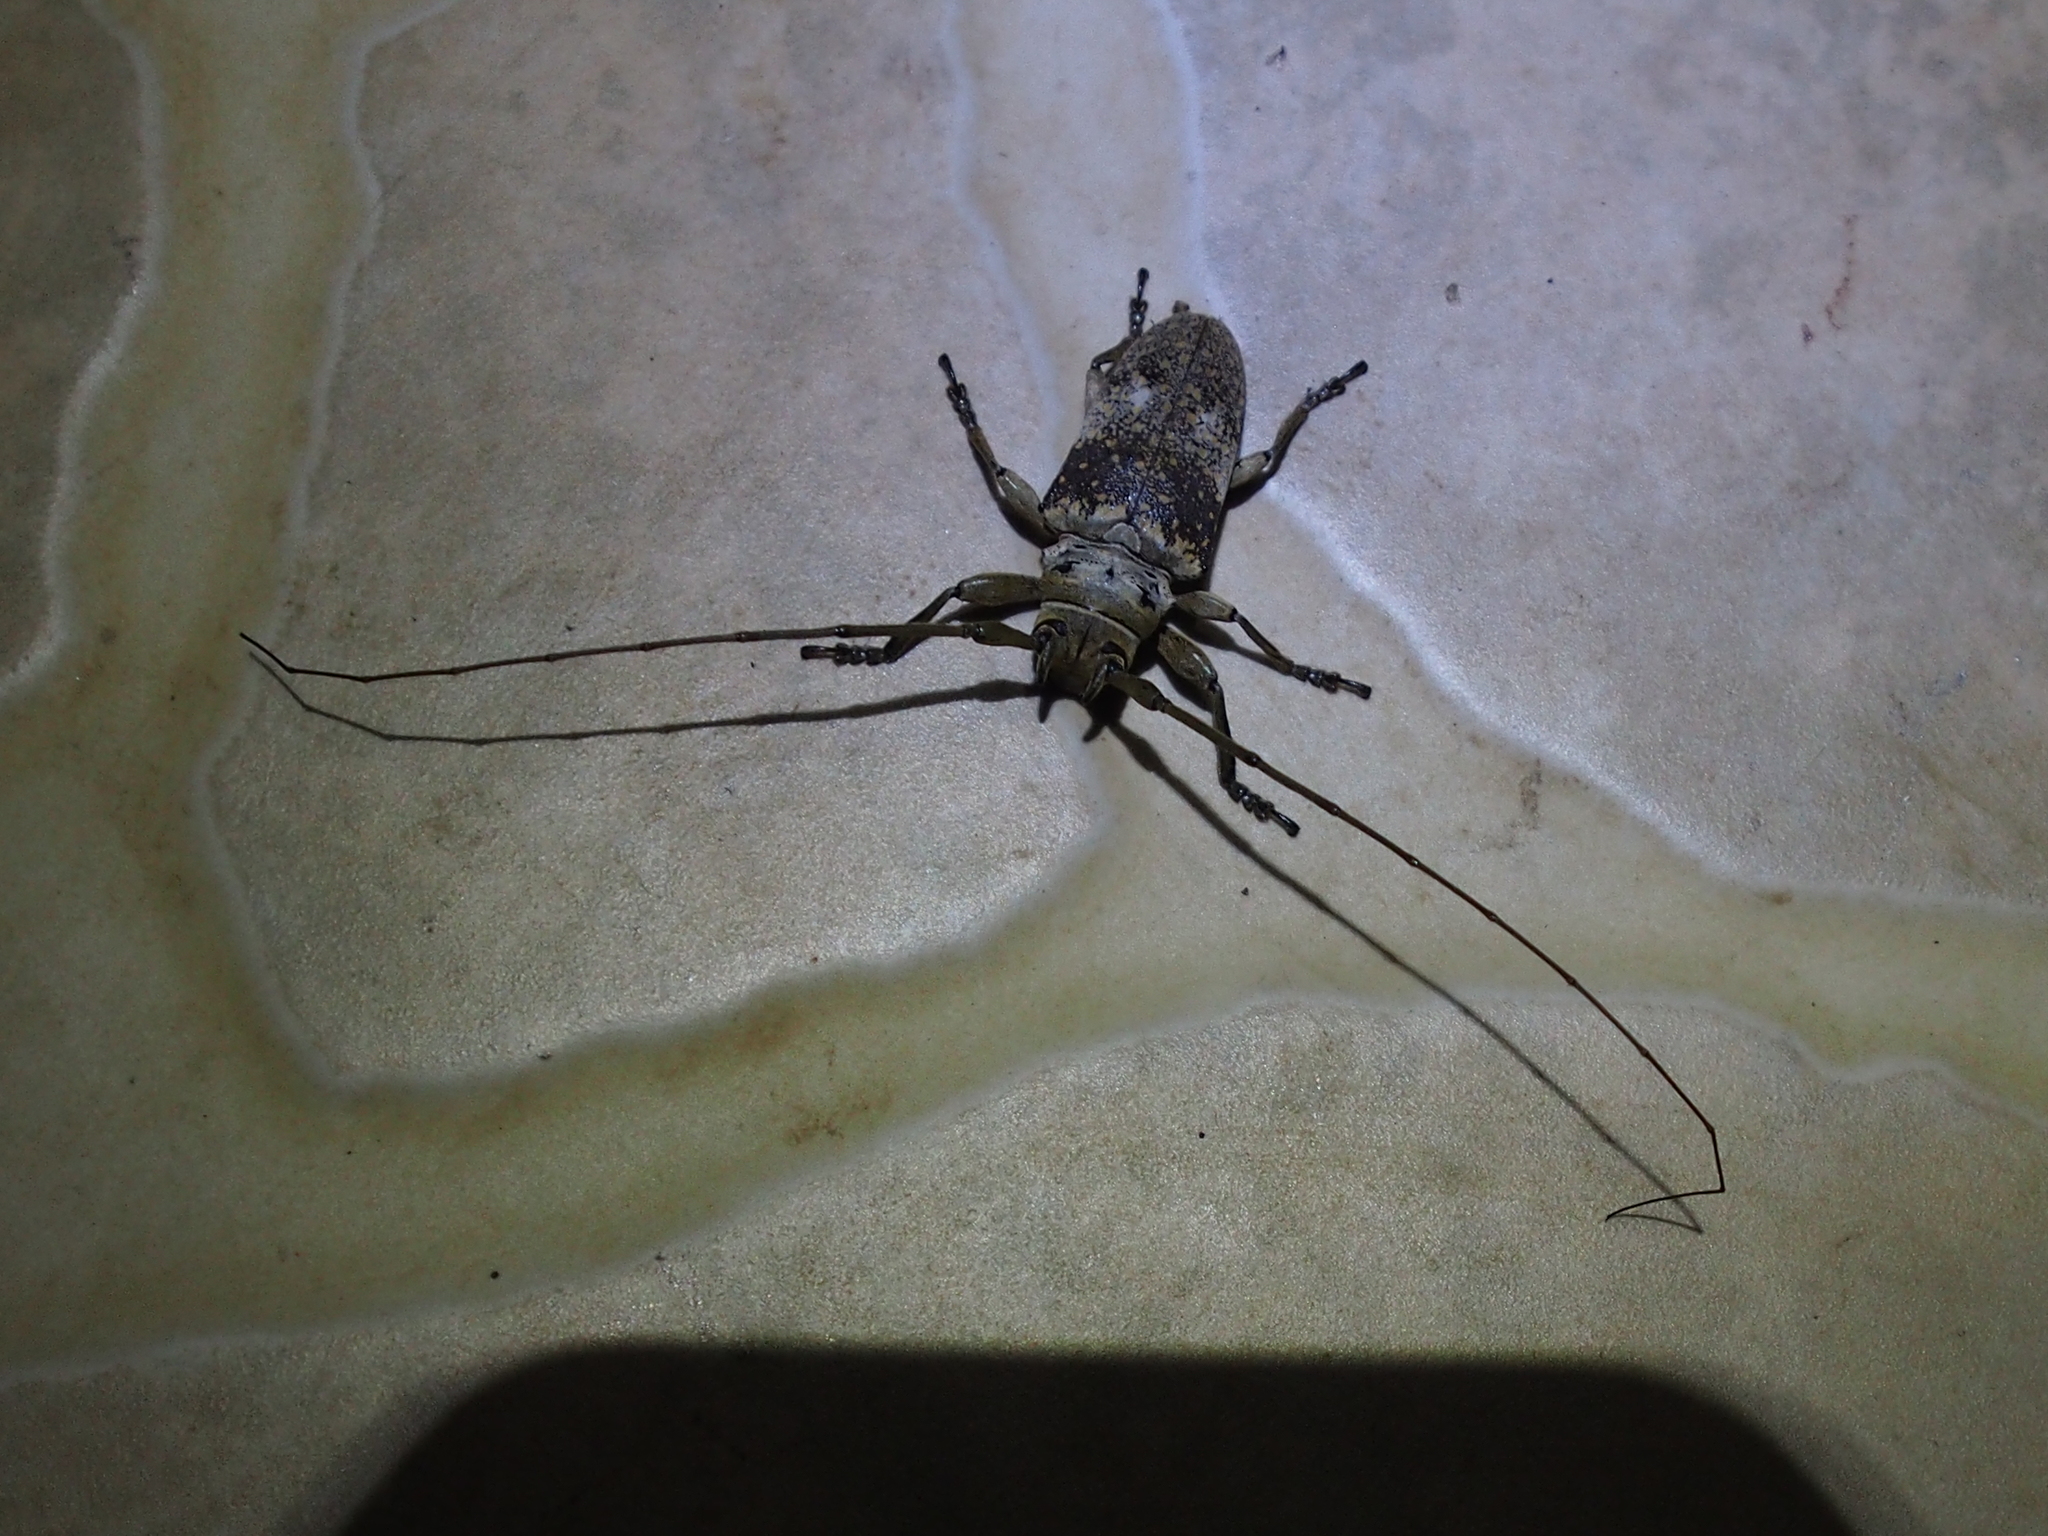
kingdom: Animalia
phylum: Arthropoda
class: Insecta
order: Coleoptera
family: Cerambycidae
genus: Lochmaeocles
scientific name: Lochmaeocles basalis
